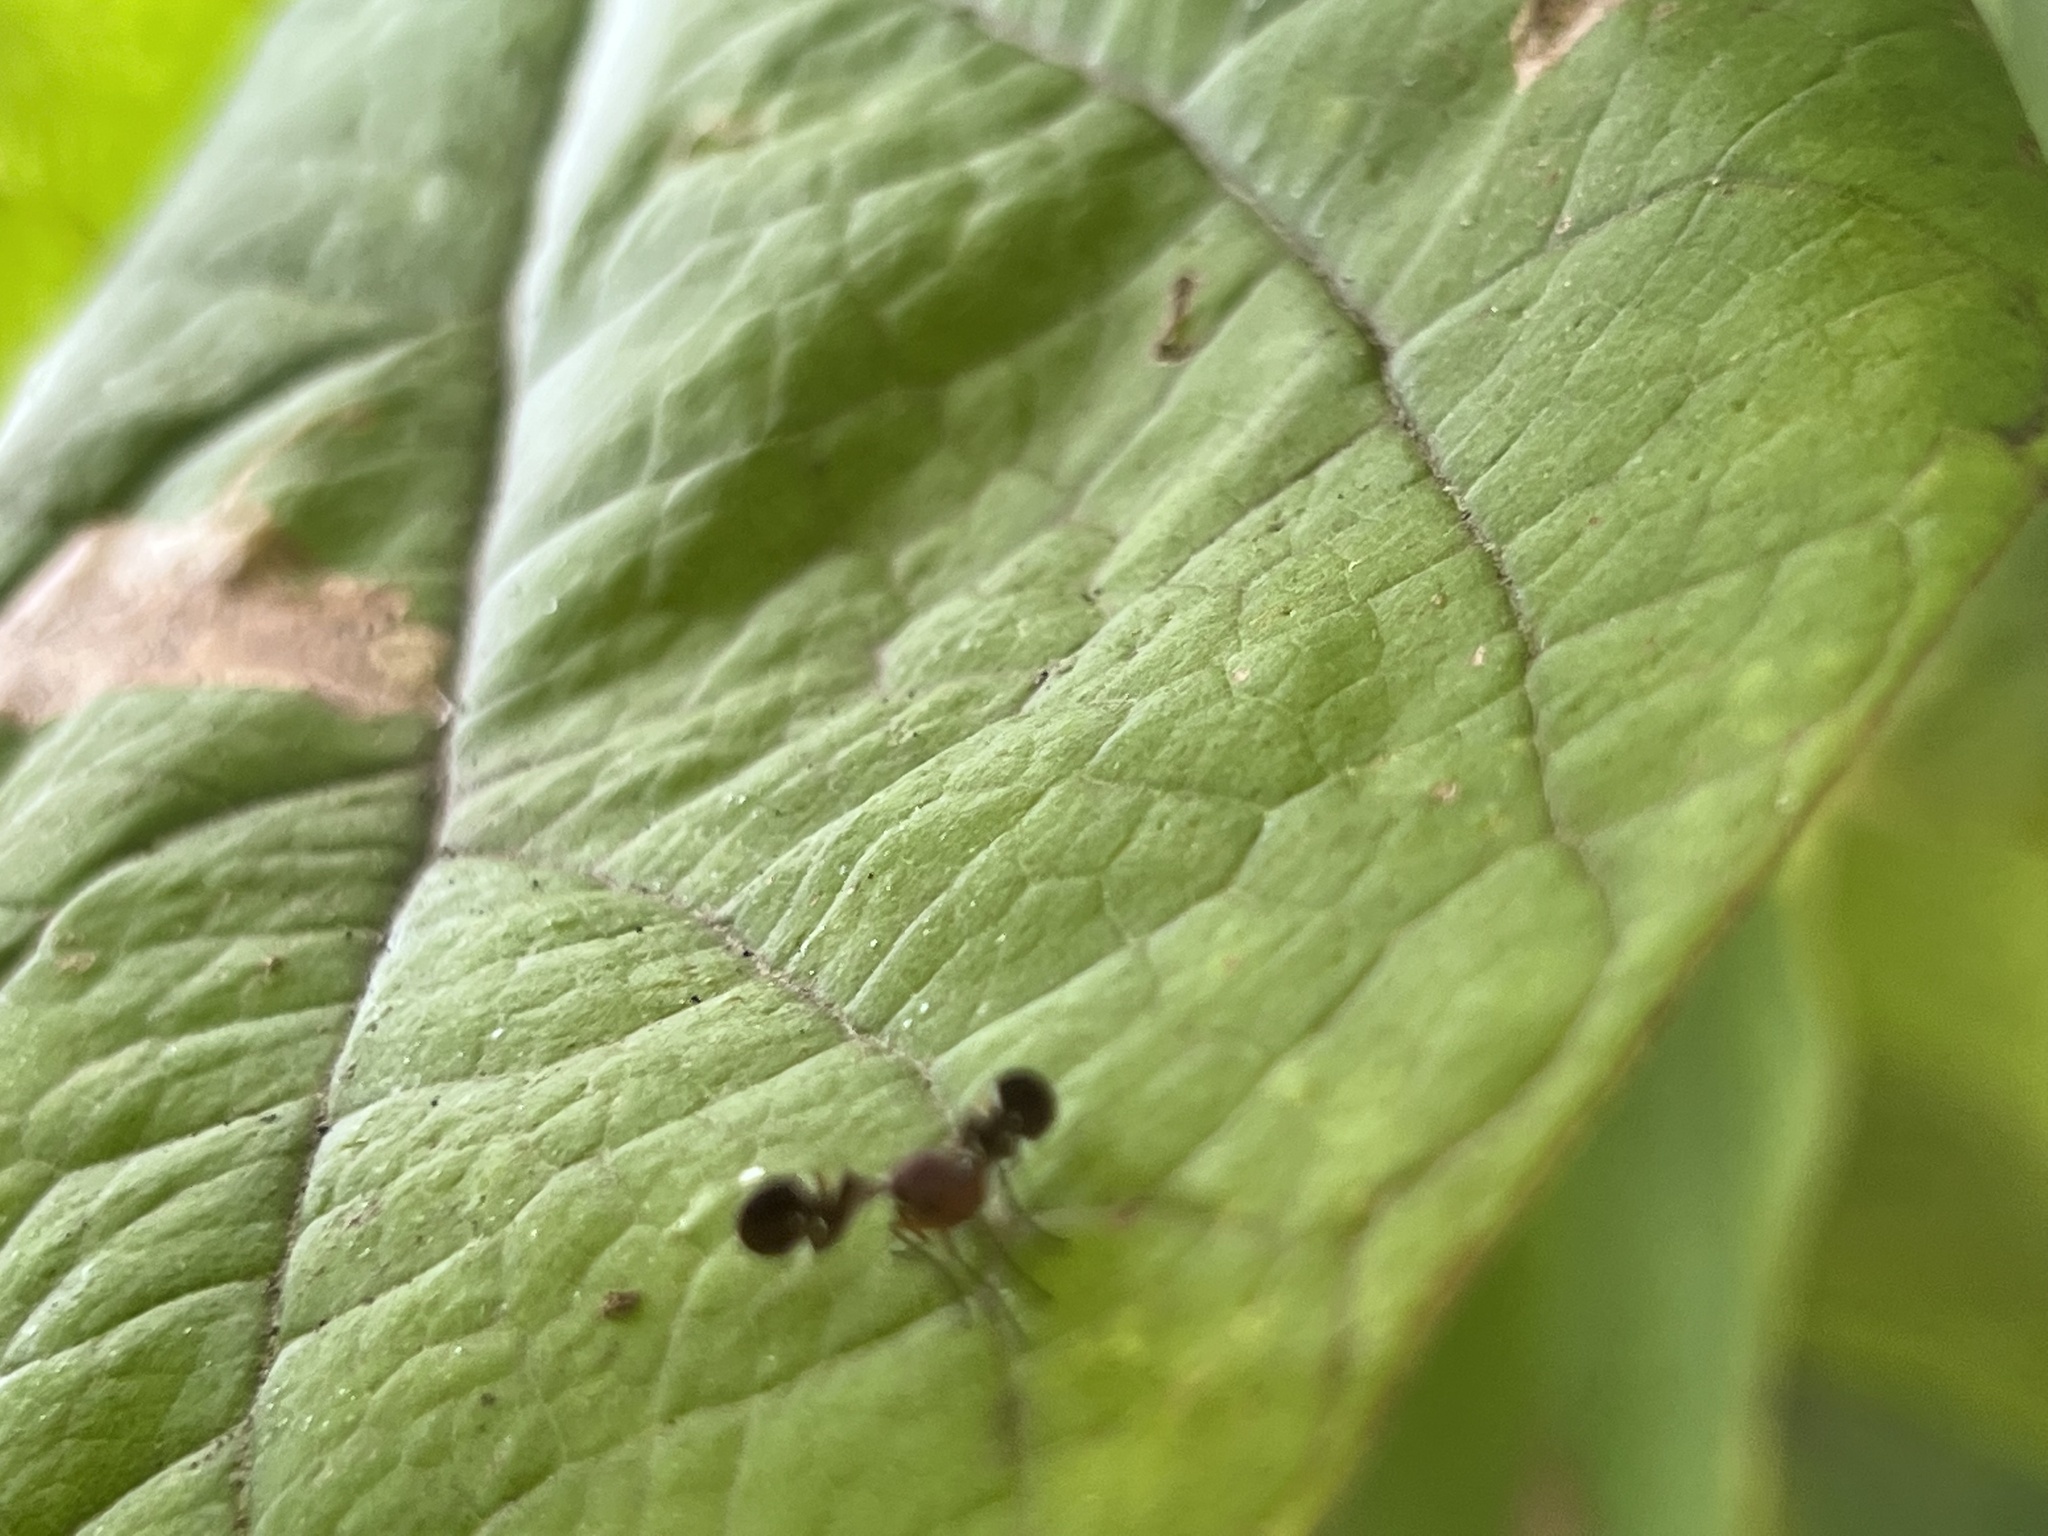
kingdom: Animalia
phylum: Arthropoda
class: Insecta
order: Diptera
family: Ulidiidae
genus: Delphinia
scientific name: Delphinia picta
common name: Common picture-winged fly
